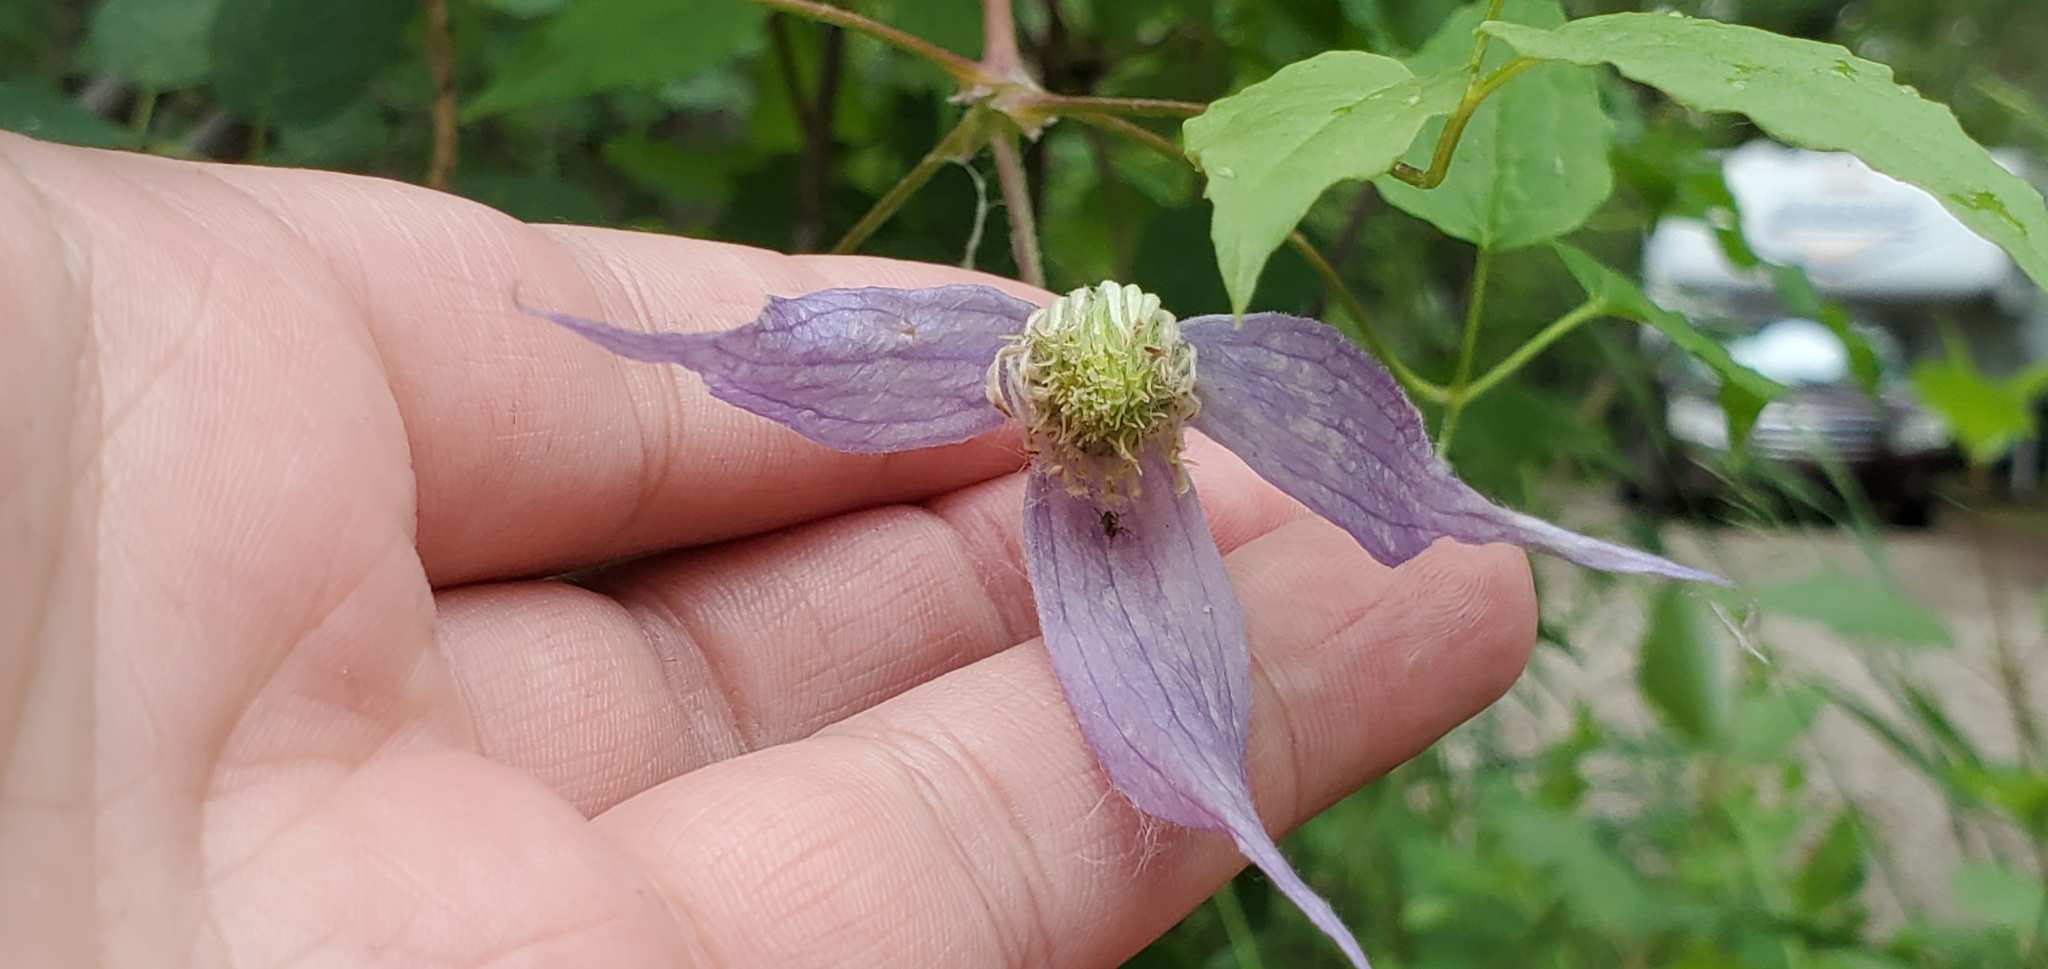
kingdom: Plantae
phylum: Tracheophyta
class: Magnoliopsida
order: Ranunculales
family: Ranunculaceae
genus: Clematis
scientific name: Clematis occidentalis
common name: Purple clematis
